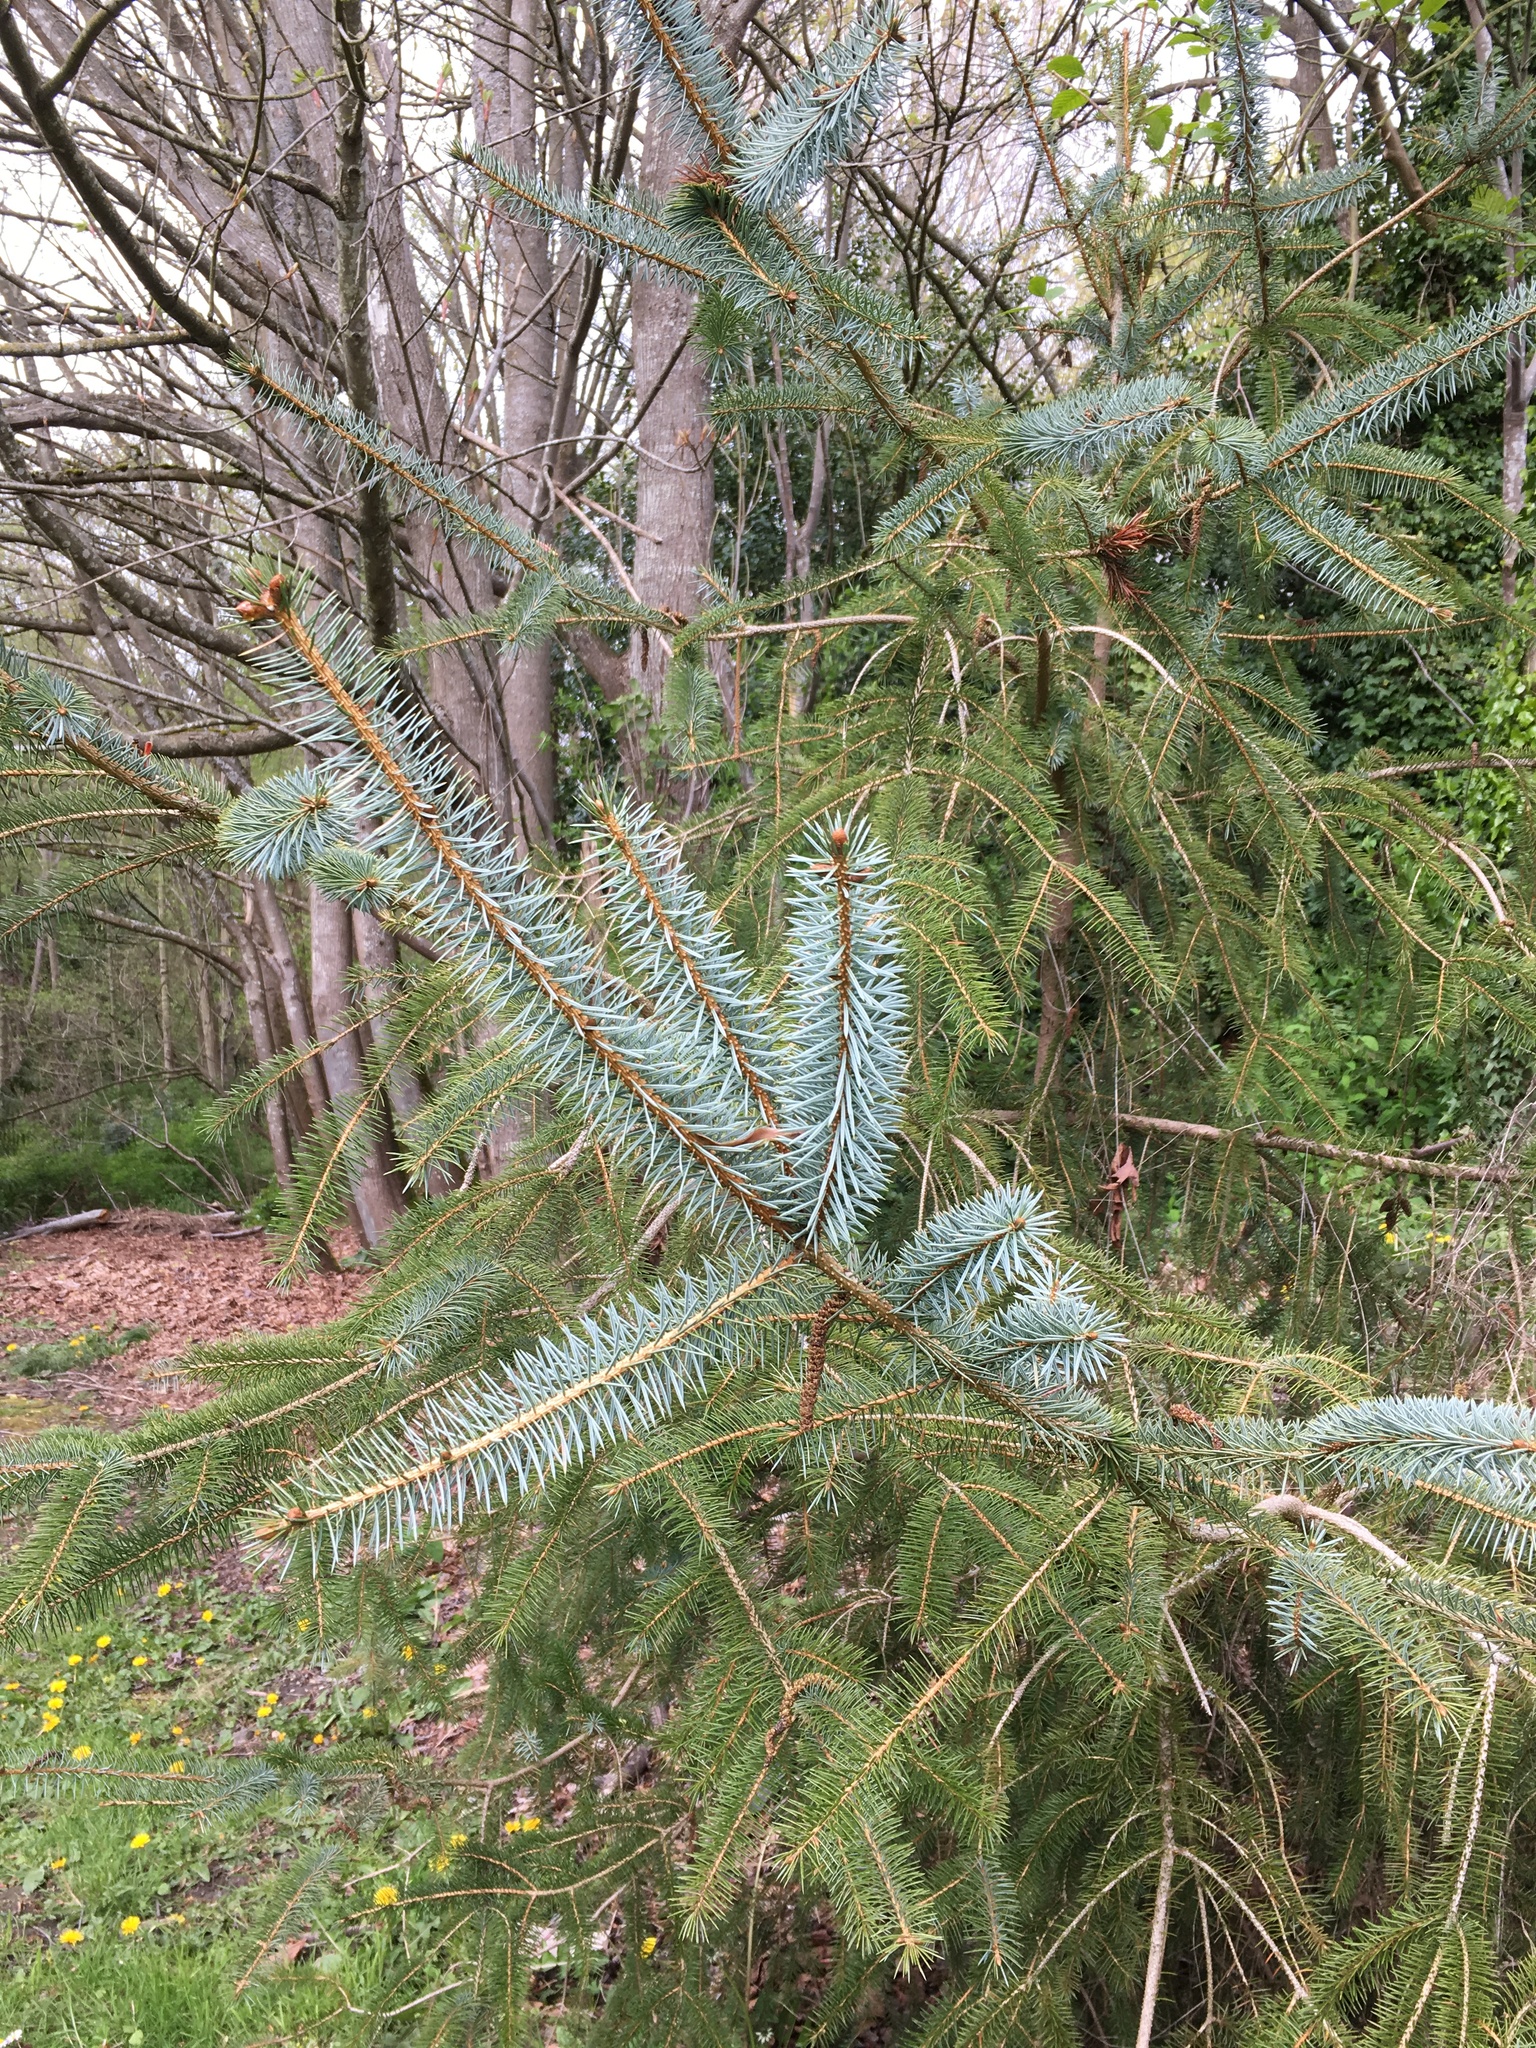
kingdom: Plantae
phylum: Tracheophyta
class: Pinopsida
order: Pinales
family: Pinaceae
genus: Picea
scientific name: Picea sitchensis
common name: Sitka spruce
